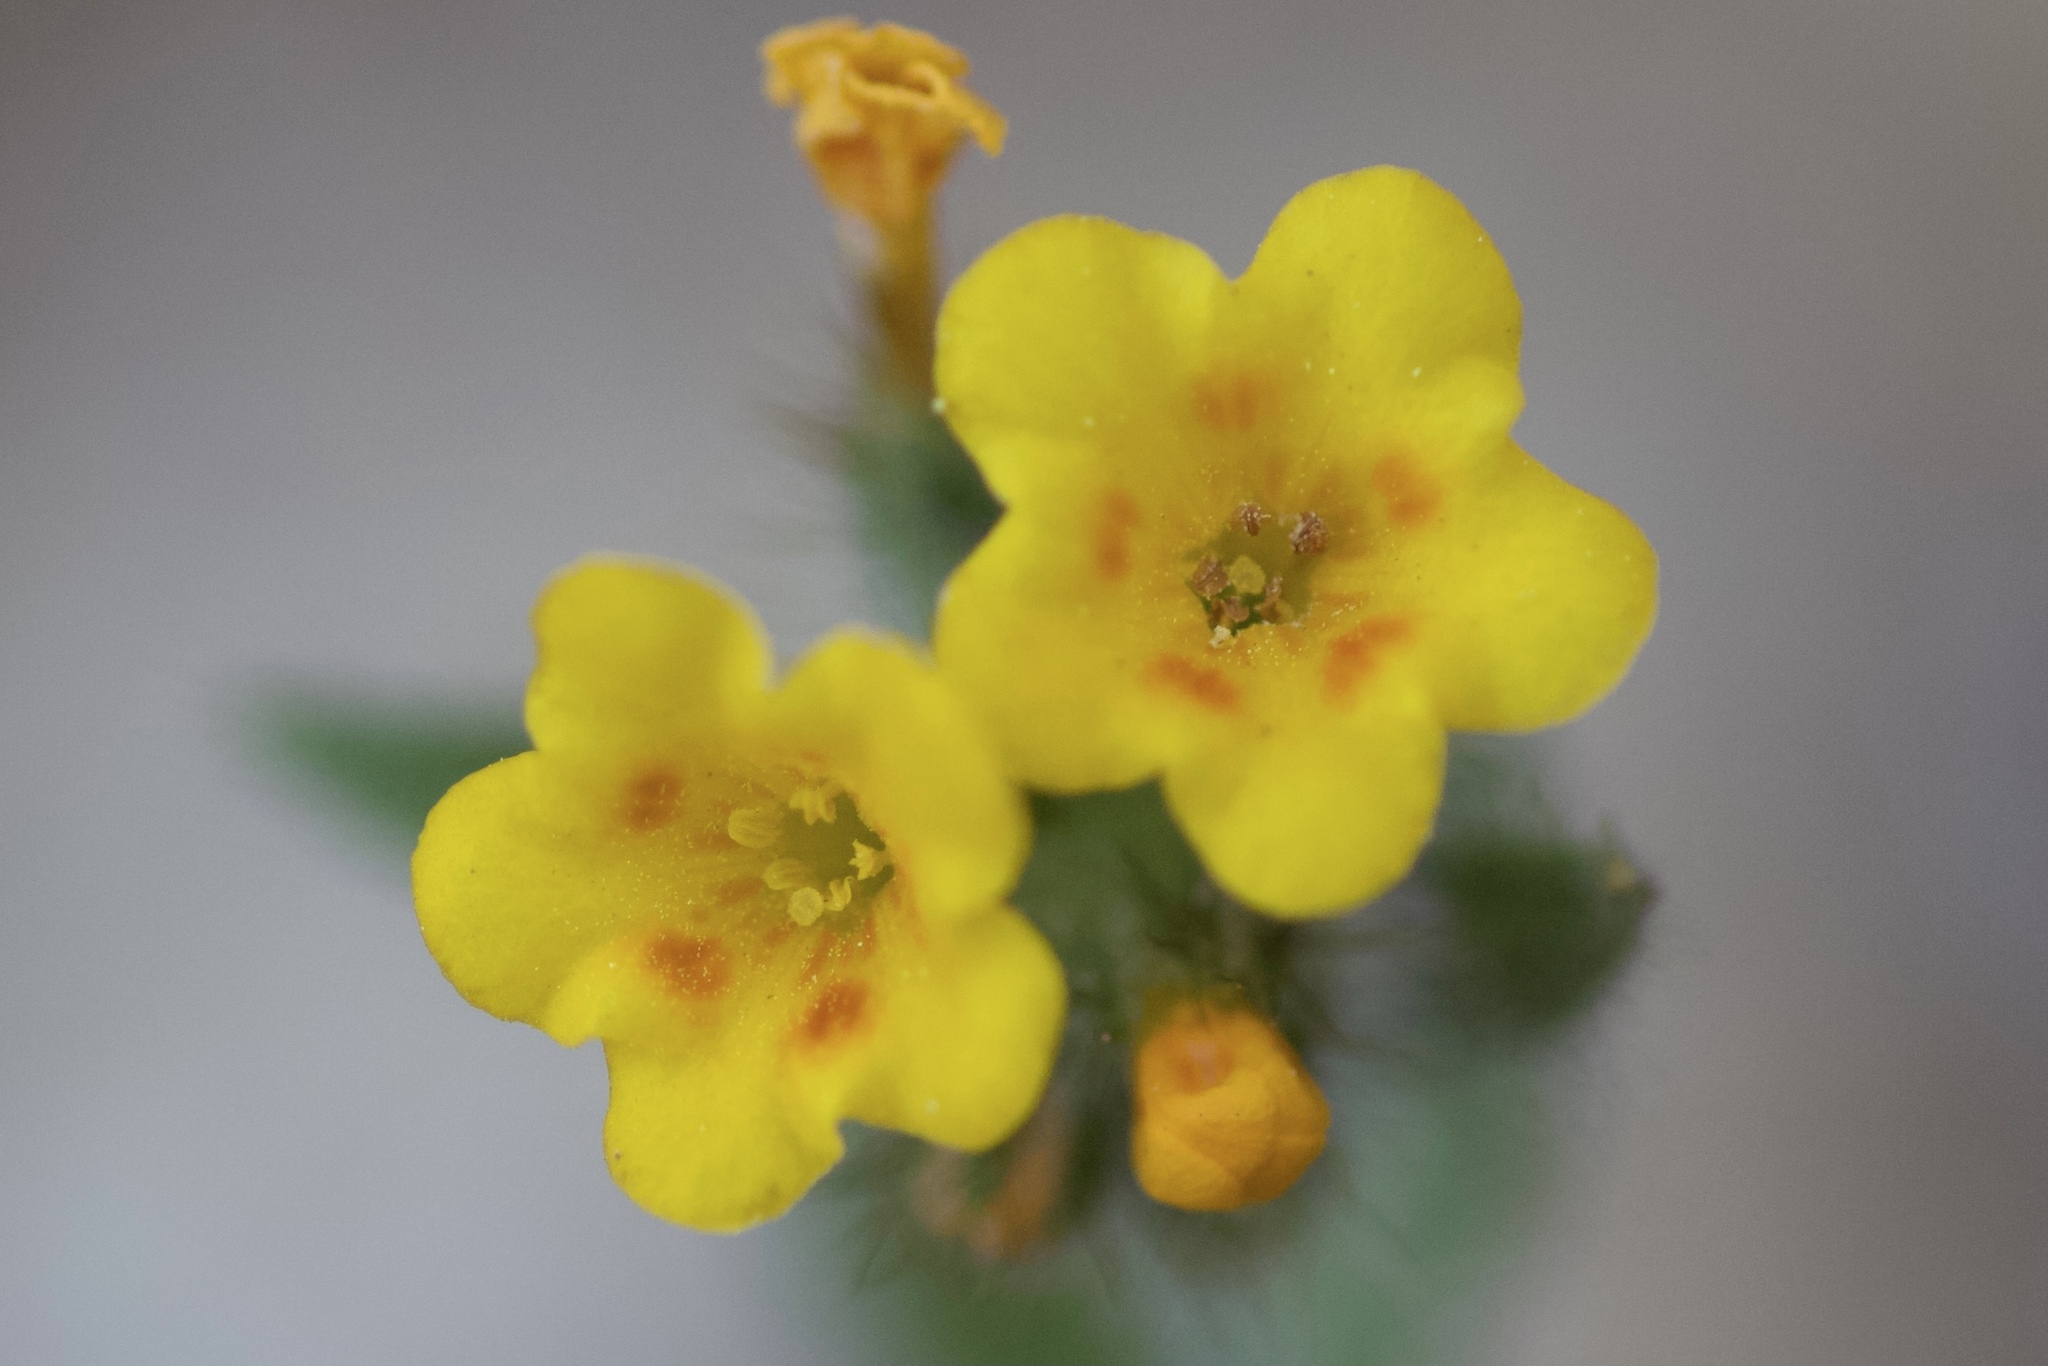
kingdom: Plantae
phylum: Tracheophyta
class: Magnoliopsida
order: Boraginales
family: Boraginaceae
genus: Amsinckia
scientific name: Amsinckia menziesii
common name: Menzies' fiddleneck
